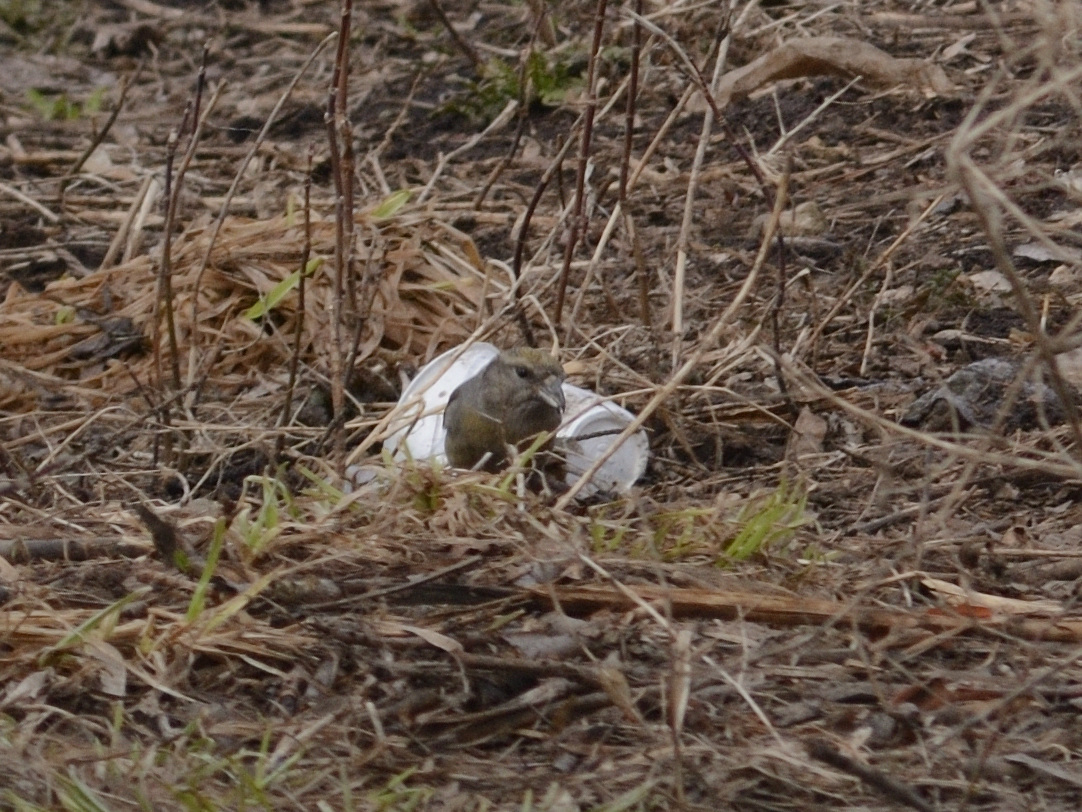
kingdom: Animalia
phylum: Chordata
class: Aves
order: Passeriformes
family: Fringillidae
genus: Loxia
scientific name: Loxia curvirostra
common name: Red crossbill
